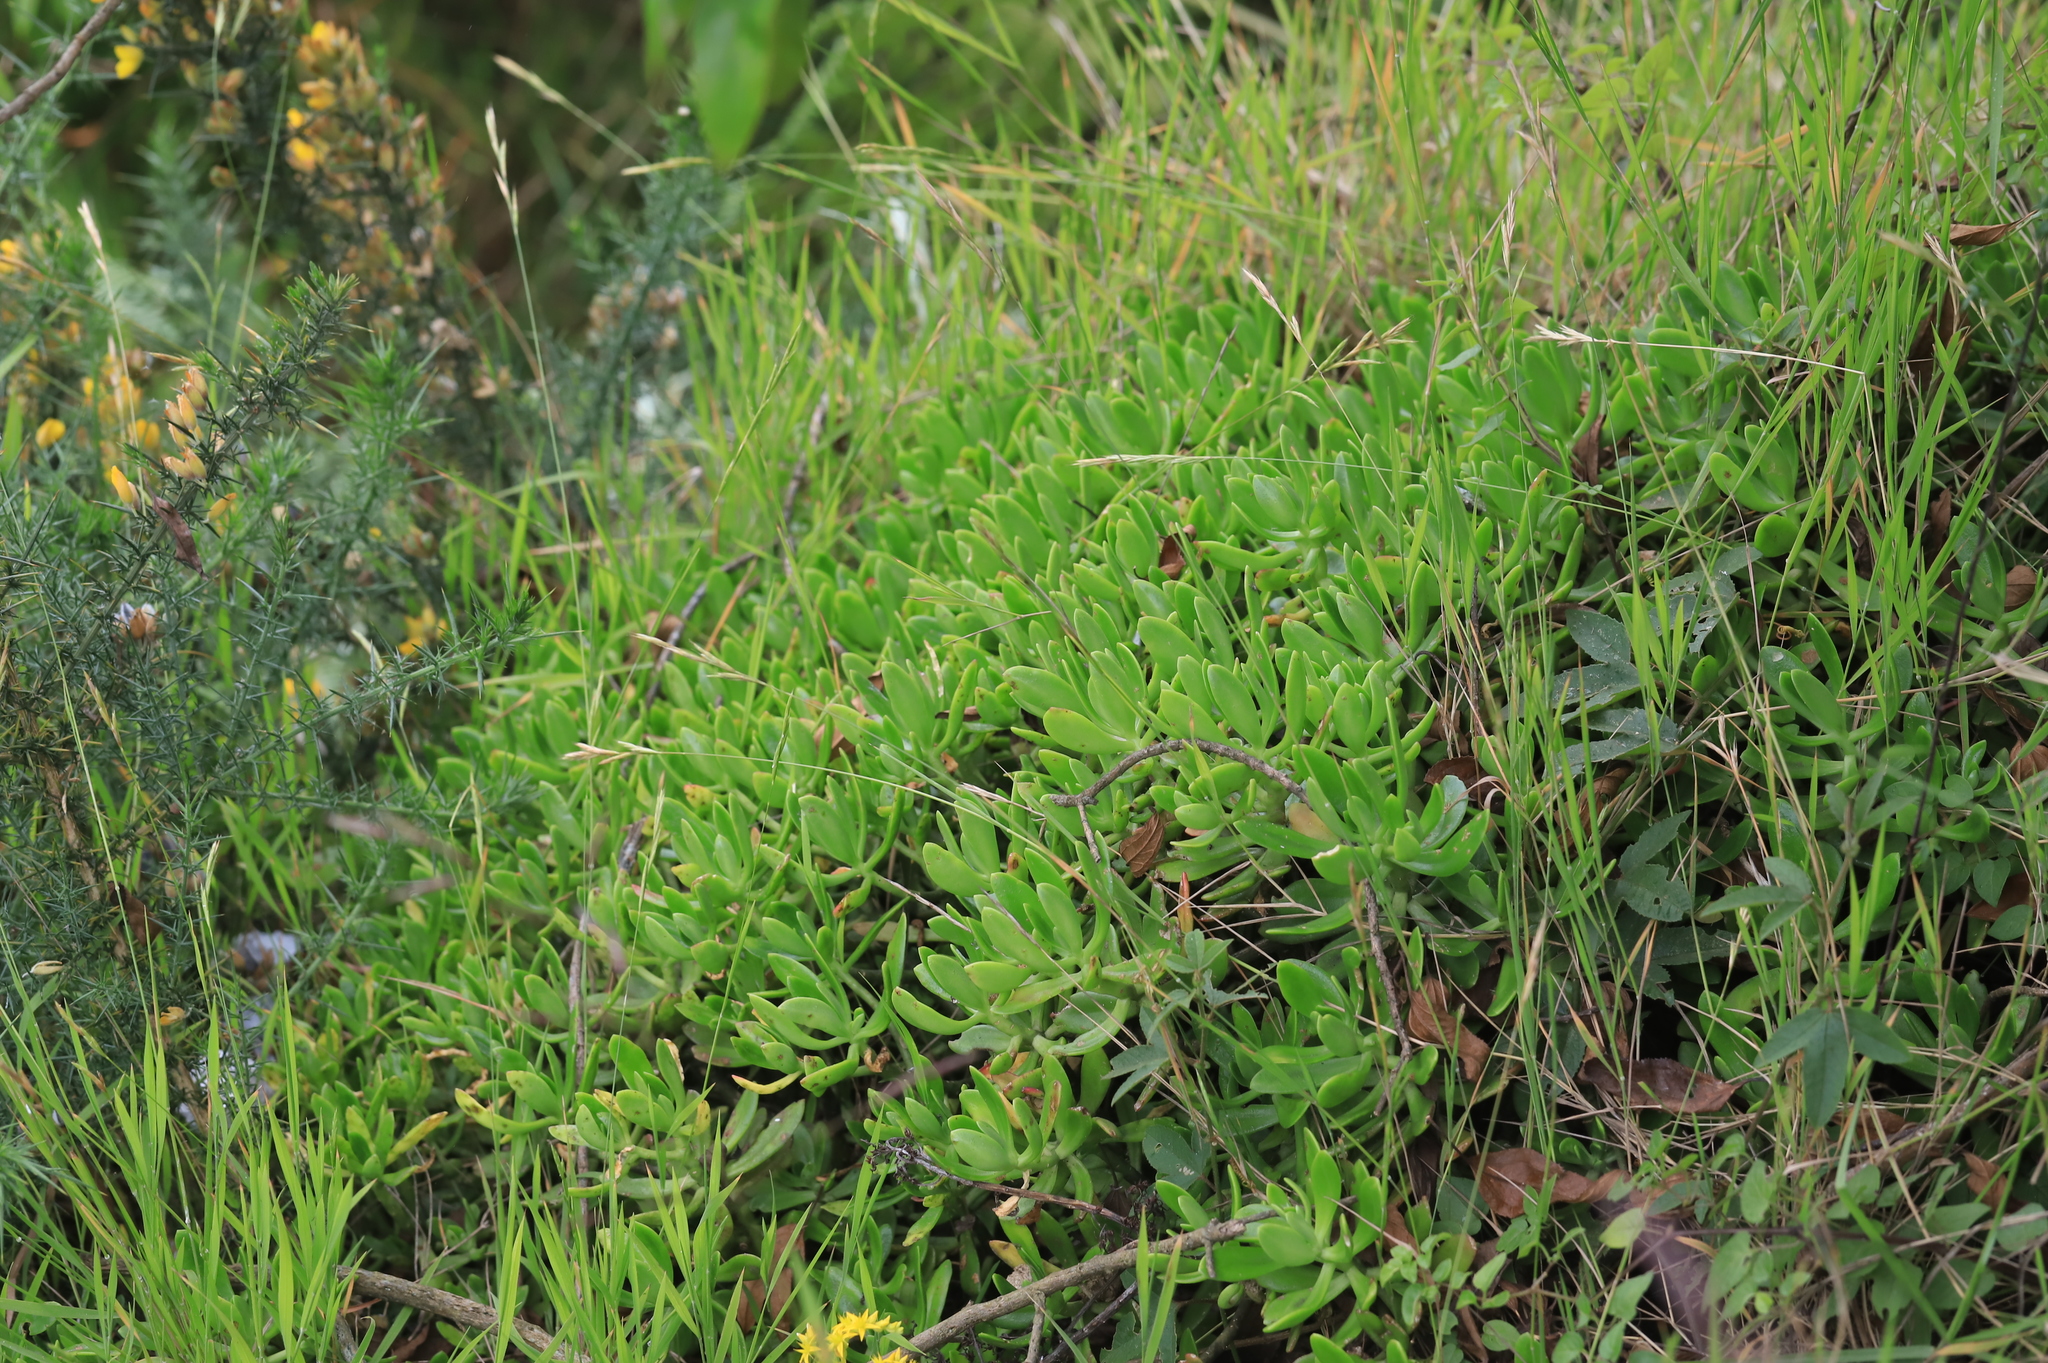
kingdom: Plantae
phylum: Tracheophyta
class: Magnoliopsida
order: Saxifragales
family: Crassulaceae
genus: Sedum
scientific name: Sedum praealtum
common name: Greater mexican-stonecrop
